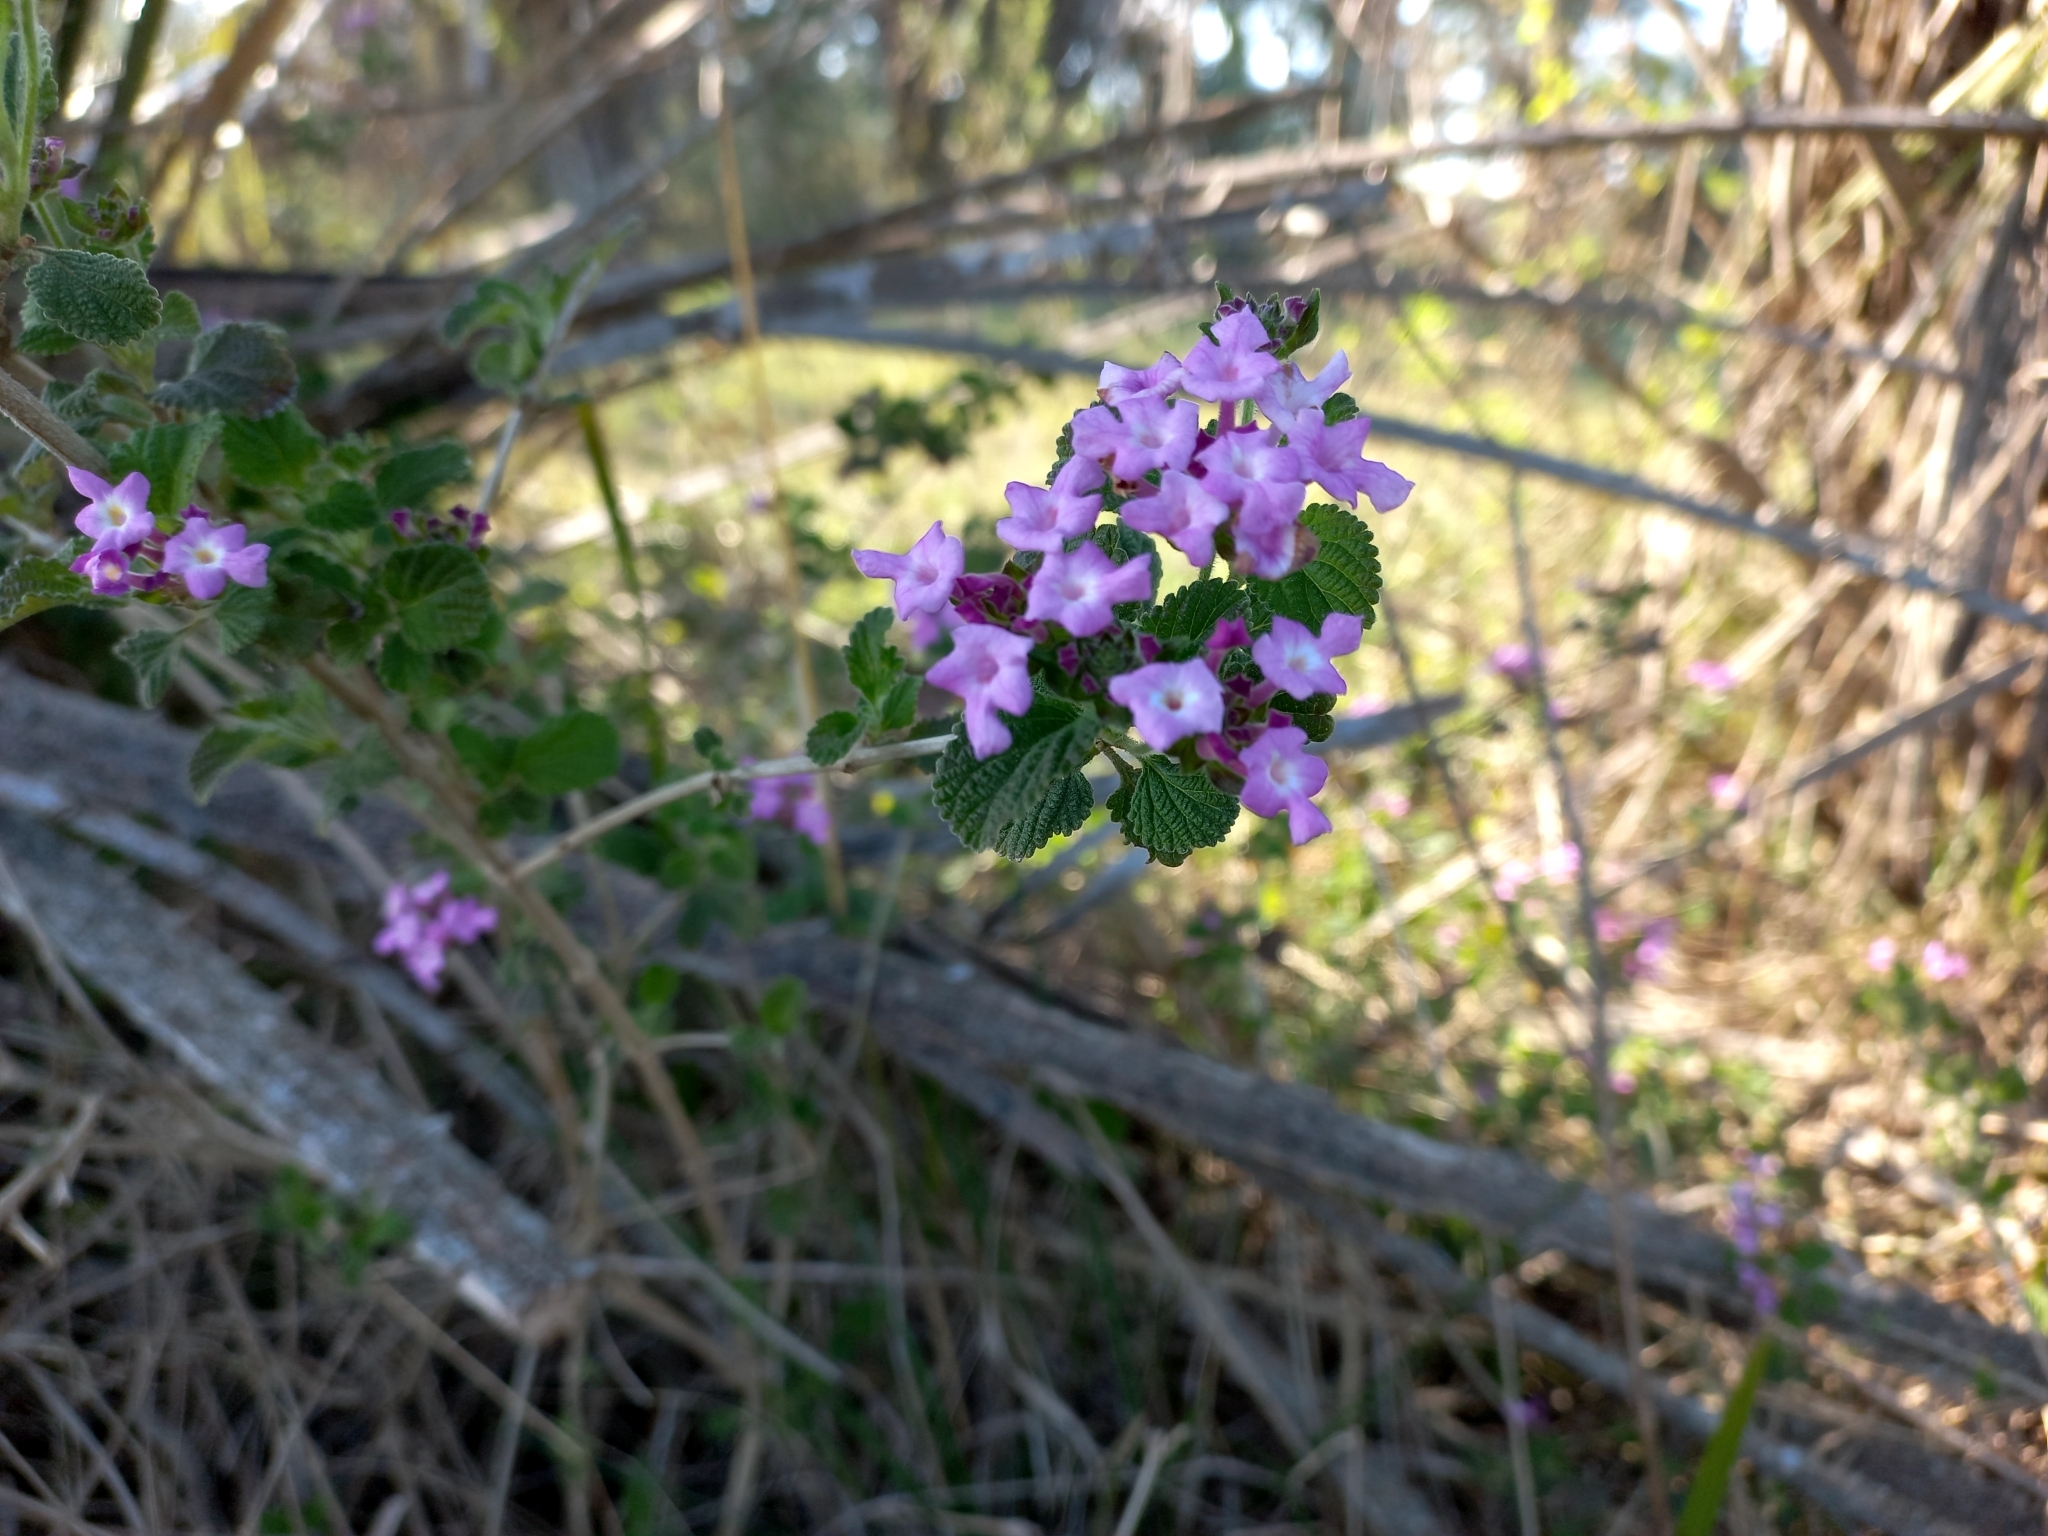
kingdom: Plantae
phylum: Tracheophyta
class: Magnoliopsida
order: Lamiales
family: Verbenaceae
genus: Lantana
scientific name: Lantana montevidensis
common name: Trailing shrubverbena
